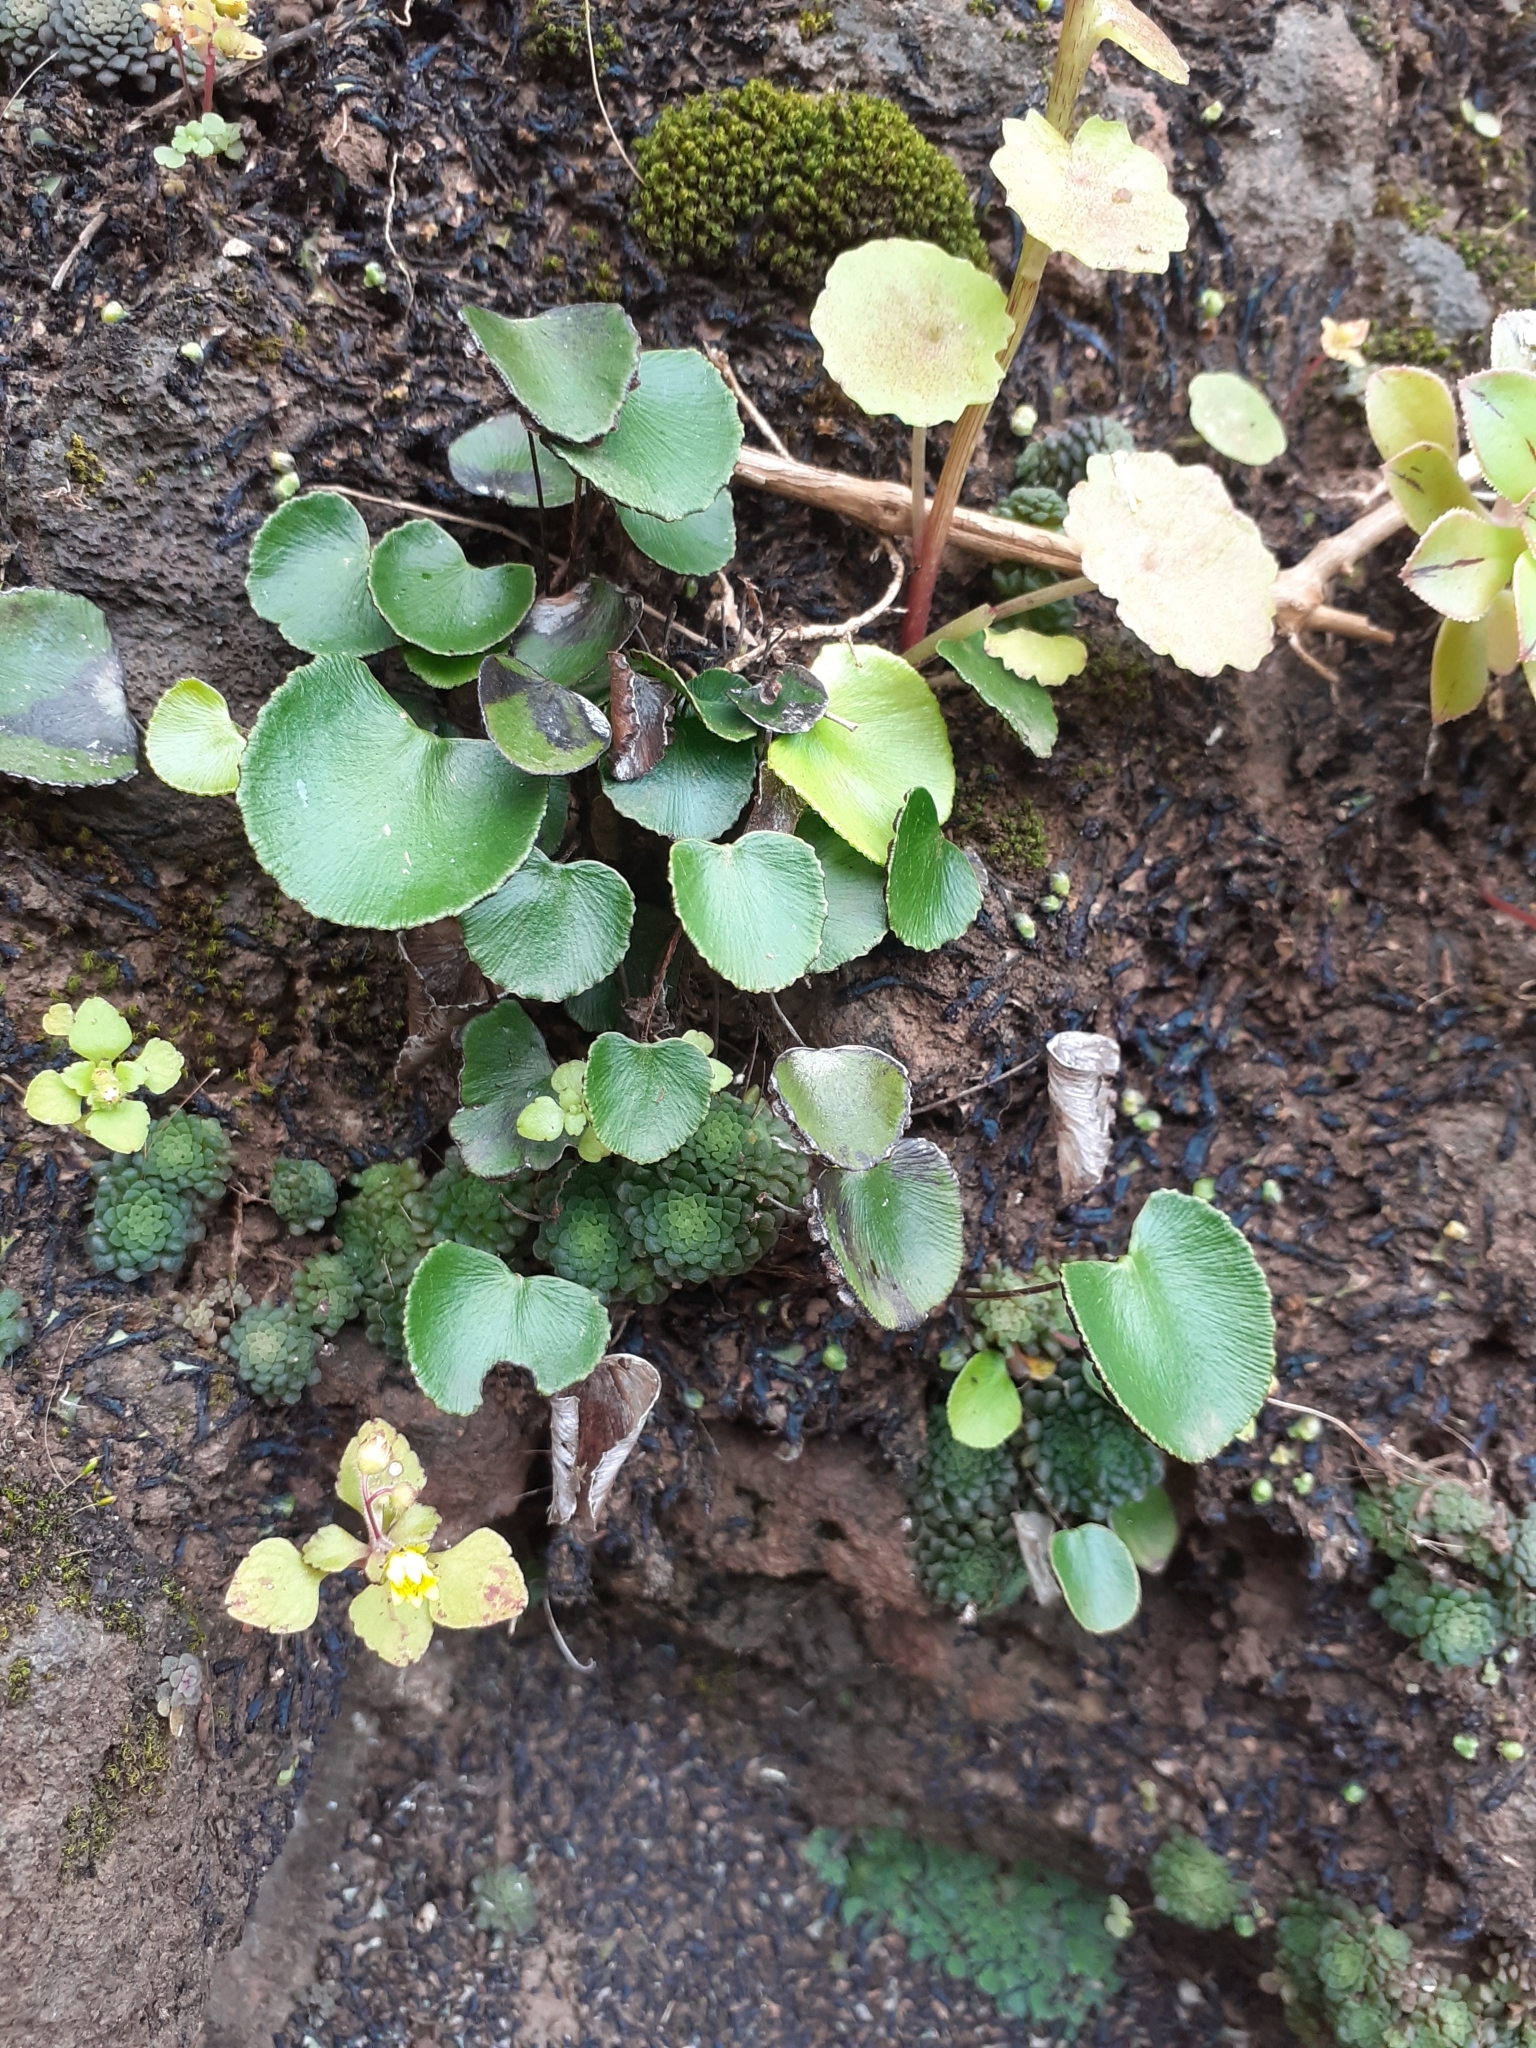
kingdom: Plantae
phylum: Tracheophyta
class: Polypodiopsida
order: Polypodiales
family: Pteridaceae
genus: Adiantum
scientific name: Adiantum reniforme
